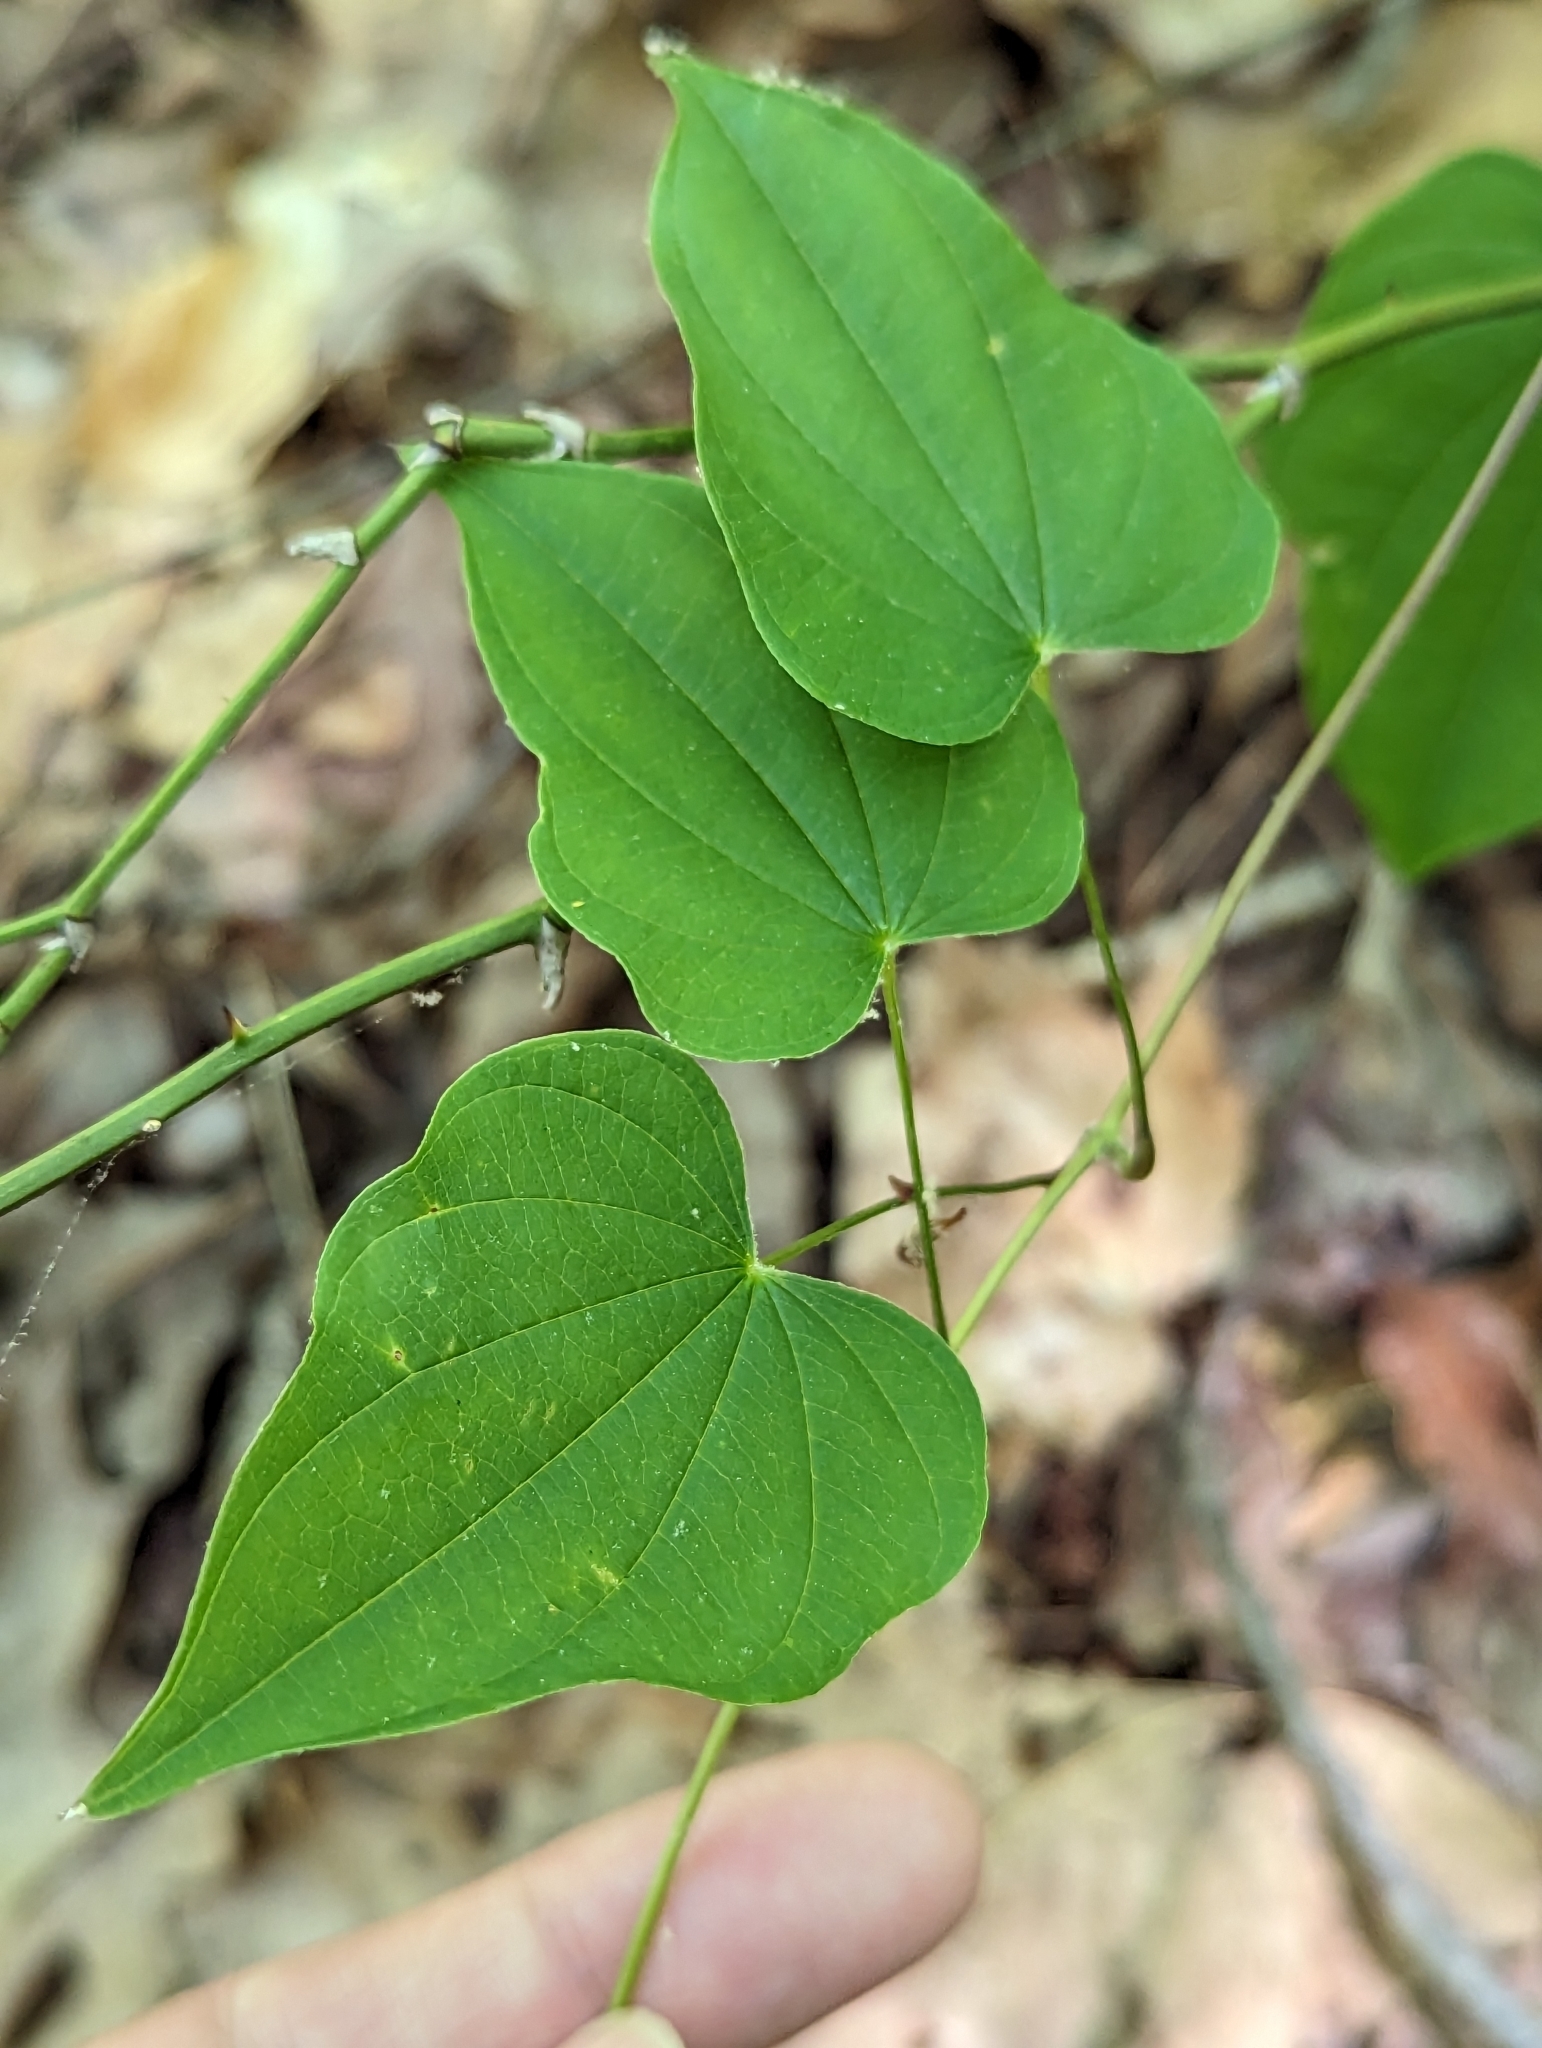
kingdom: Plantae
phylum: Tracheophyta
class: Liliopsida
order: Dioscoreales
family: Dioscoreaceae
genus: Dioscorea
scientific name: Dioscorea villosa
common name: Wild yam
